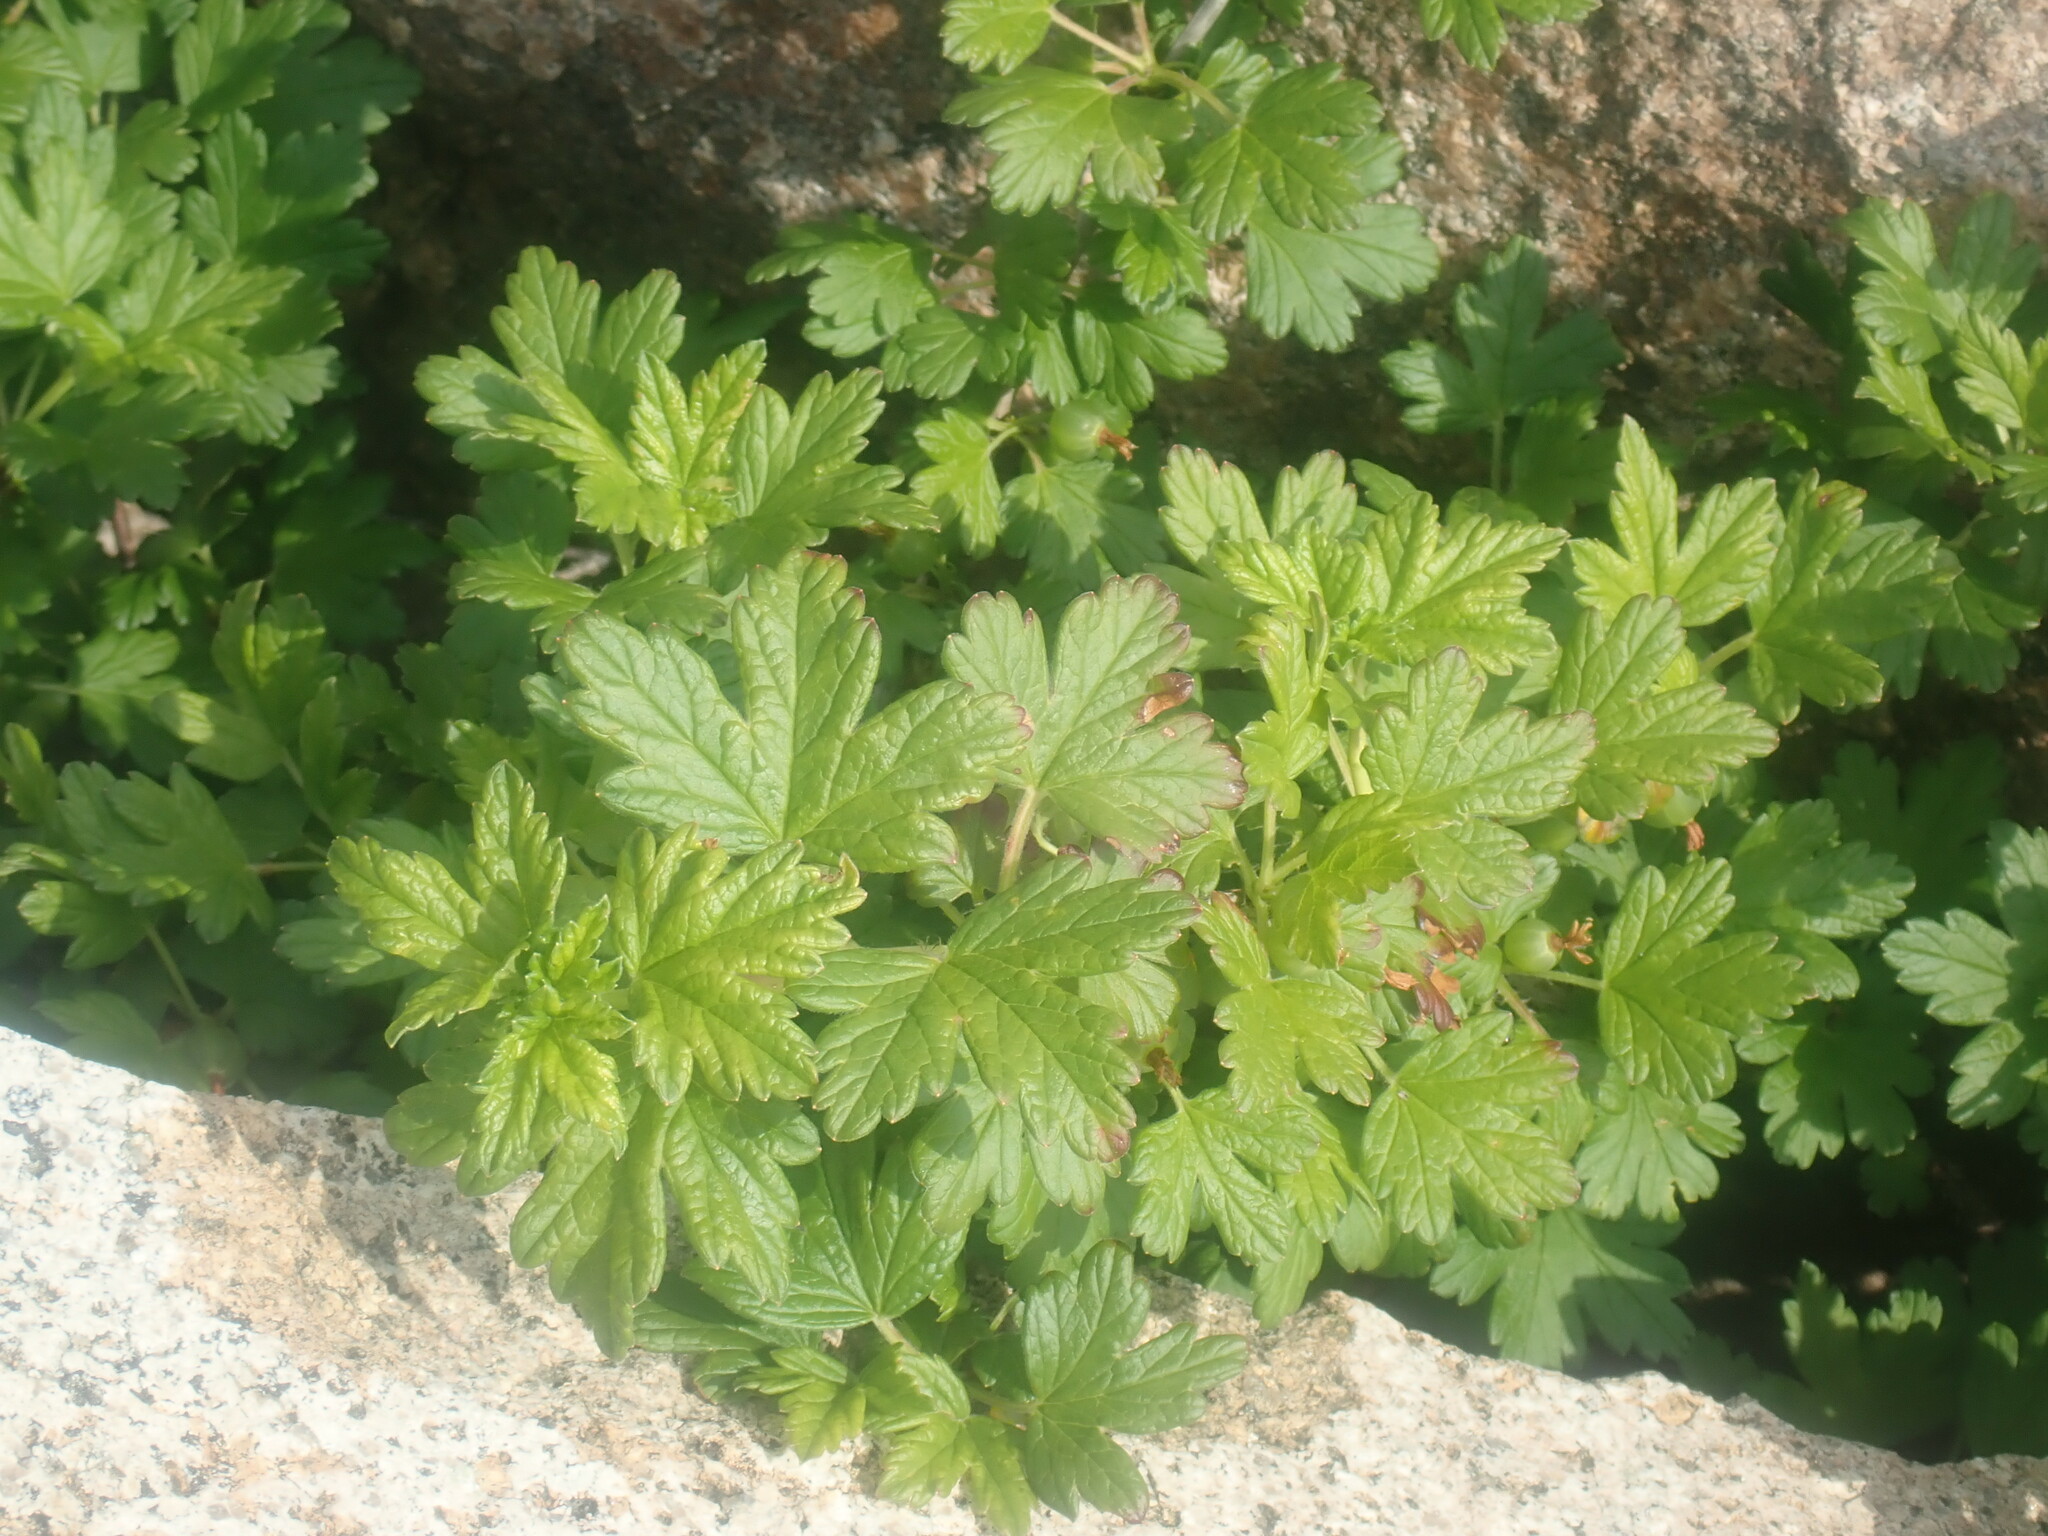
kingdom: Plantae
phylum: Tracheophyta
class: Magnoliopsida
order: Saxifragales
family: Grossulariaceae
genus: Ribes
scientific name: Ribes hirtellum
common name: Hairy gooseberry
